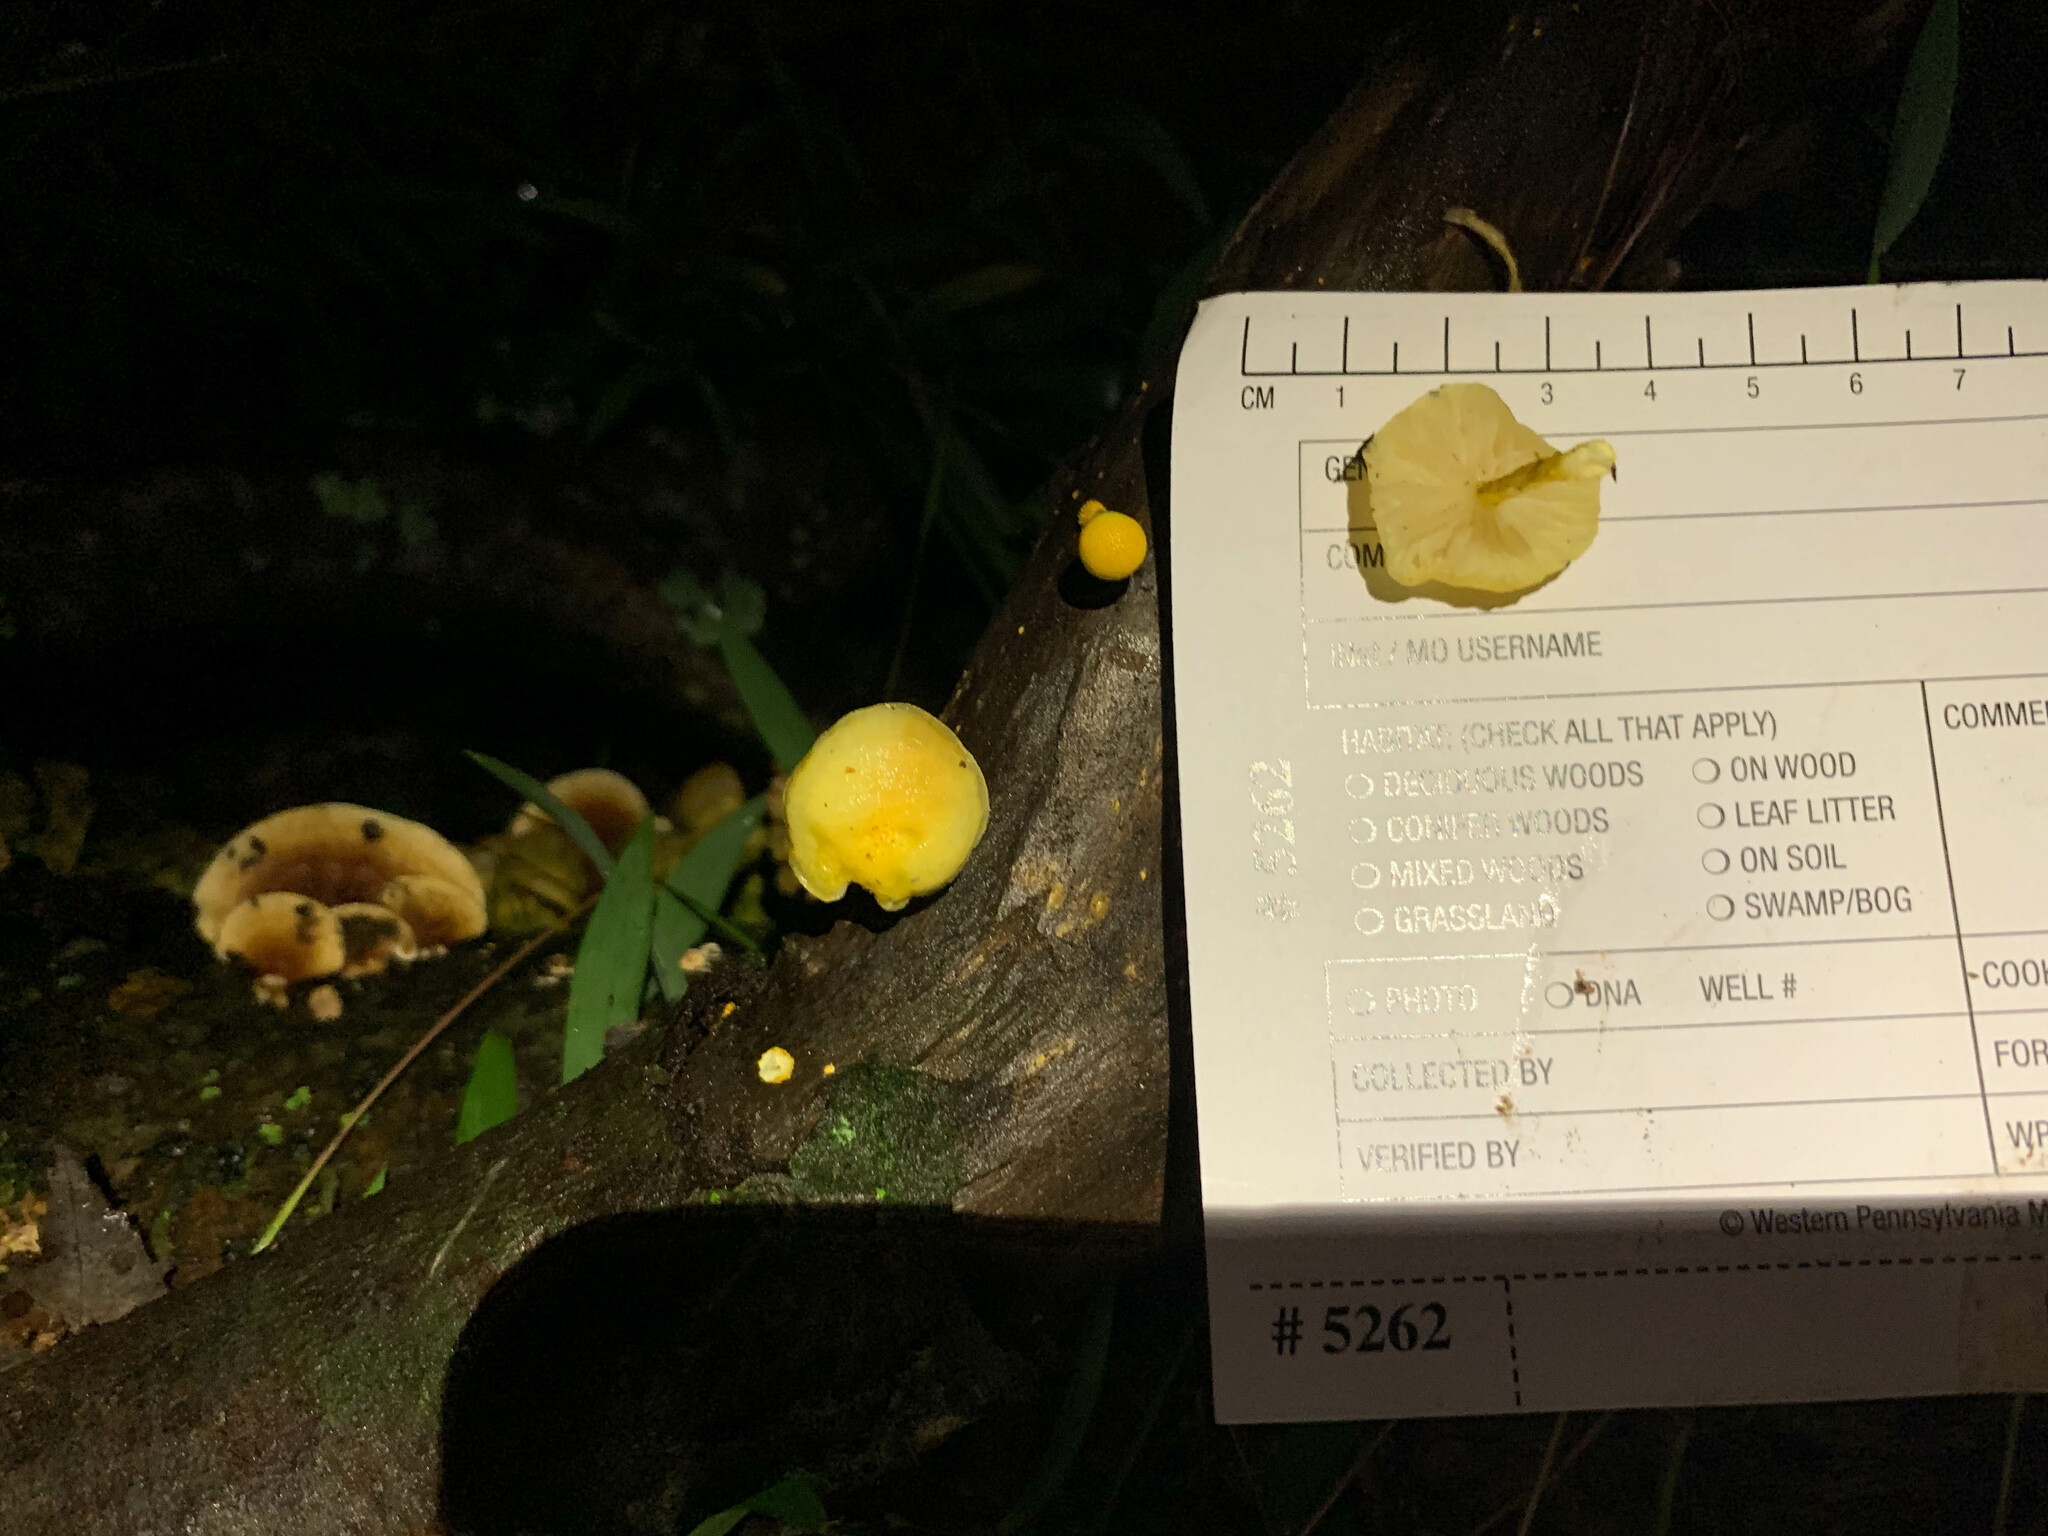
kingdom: Fungi
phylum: Basidiomycota
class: Agaricomycetes
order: Agaricales
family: Physalacriaceae
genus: Cyptotrama
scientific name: Cyptotrama chrysopepla
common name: Golden coincap
